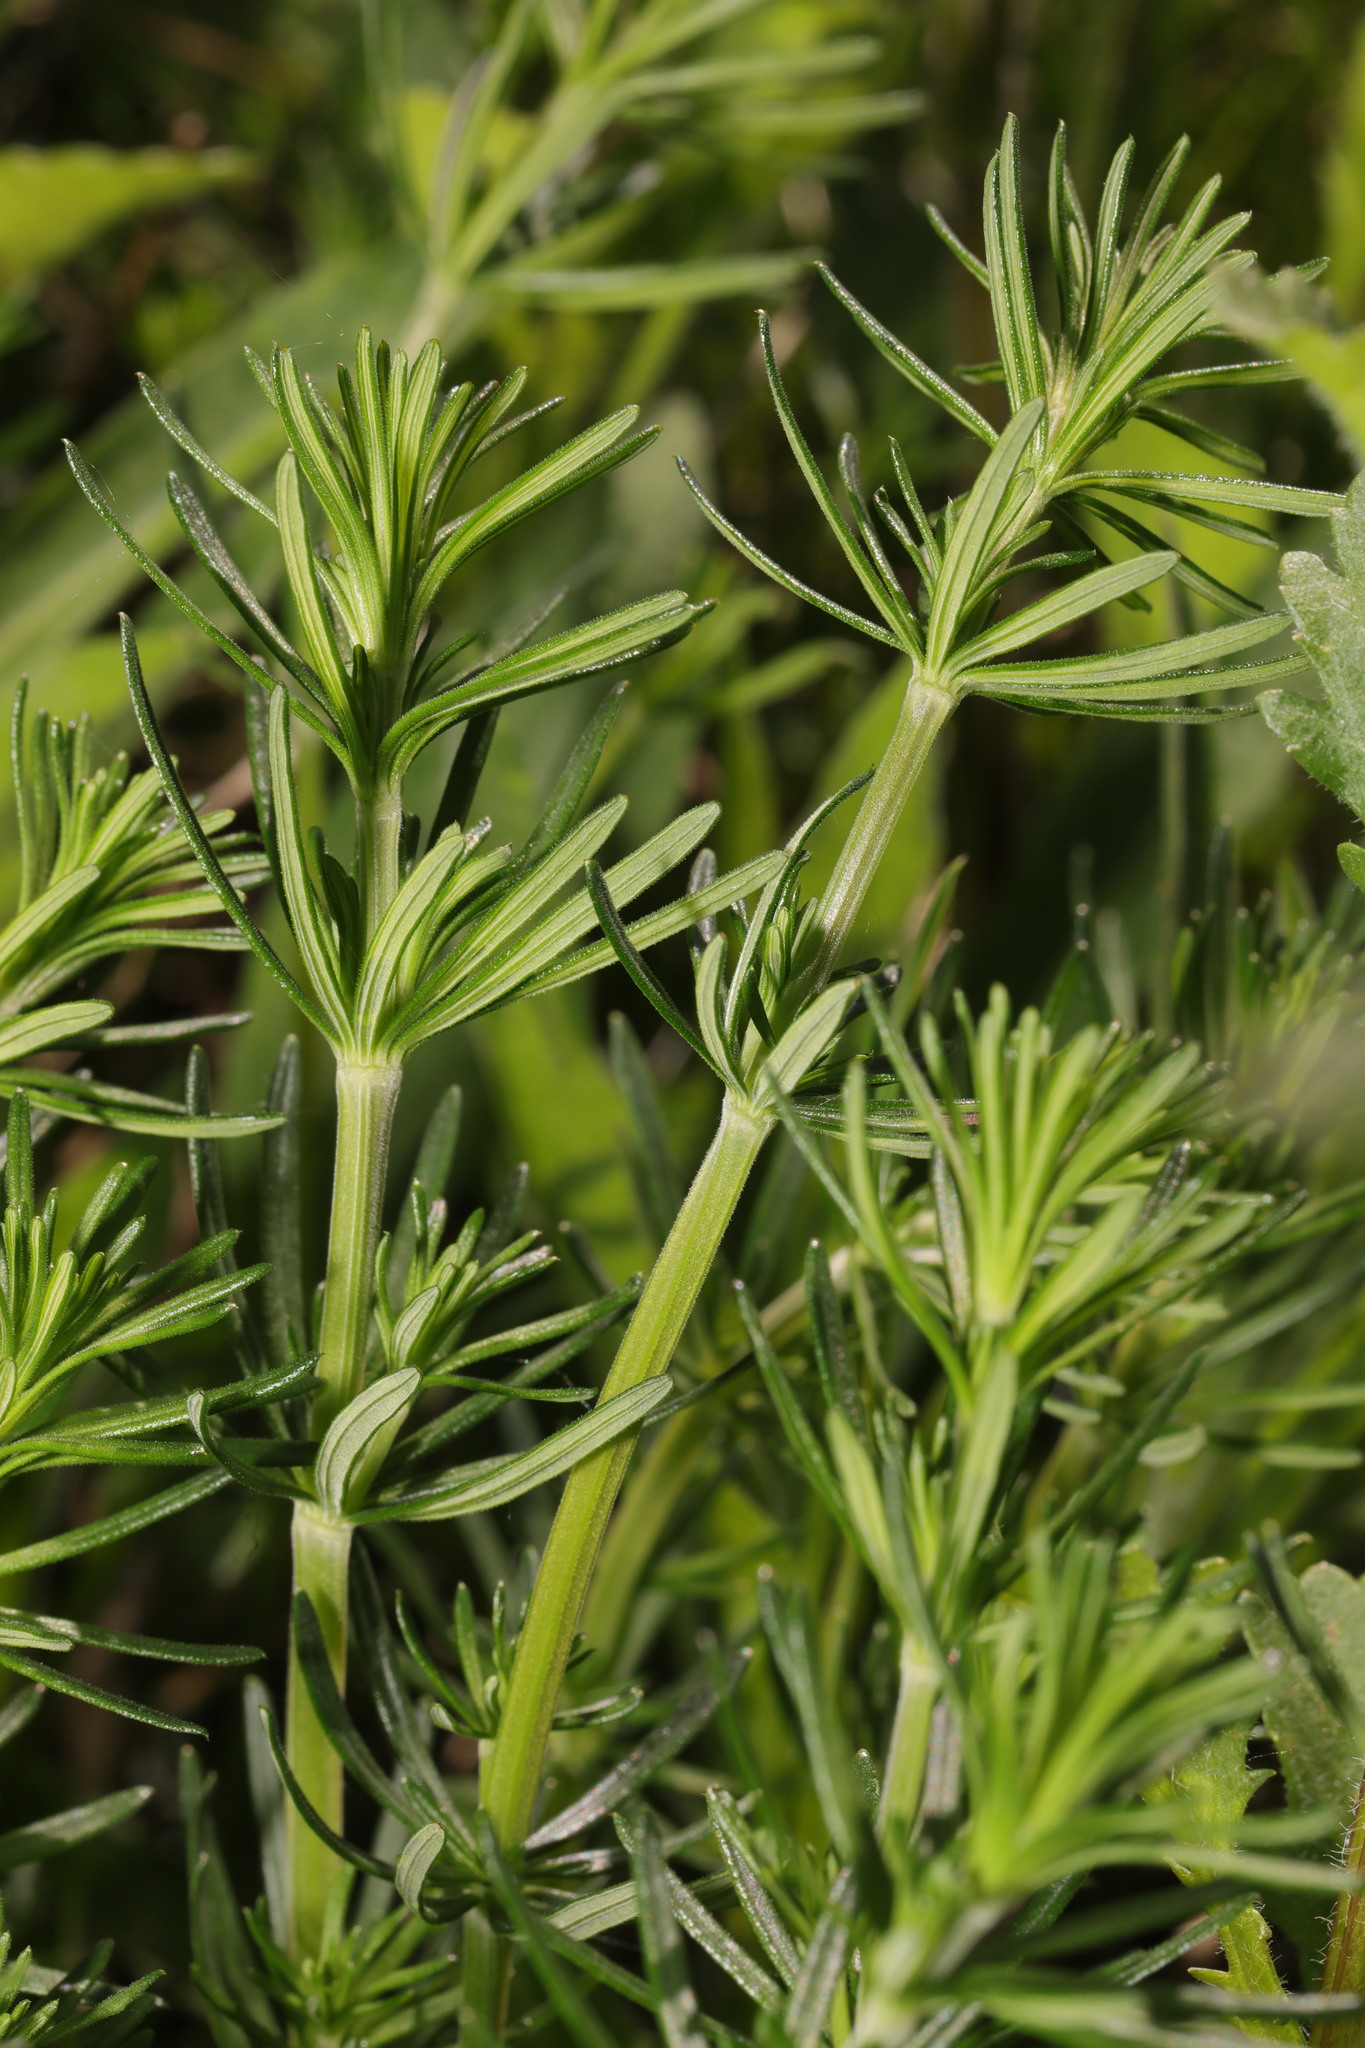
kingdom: Plantae
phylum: Tracheophyta
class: Magnoliopsida
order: Gentianales
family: Rubiaceae
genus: Galium
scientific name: Galium verum
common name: Lady's bedstraw
